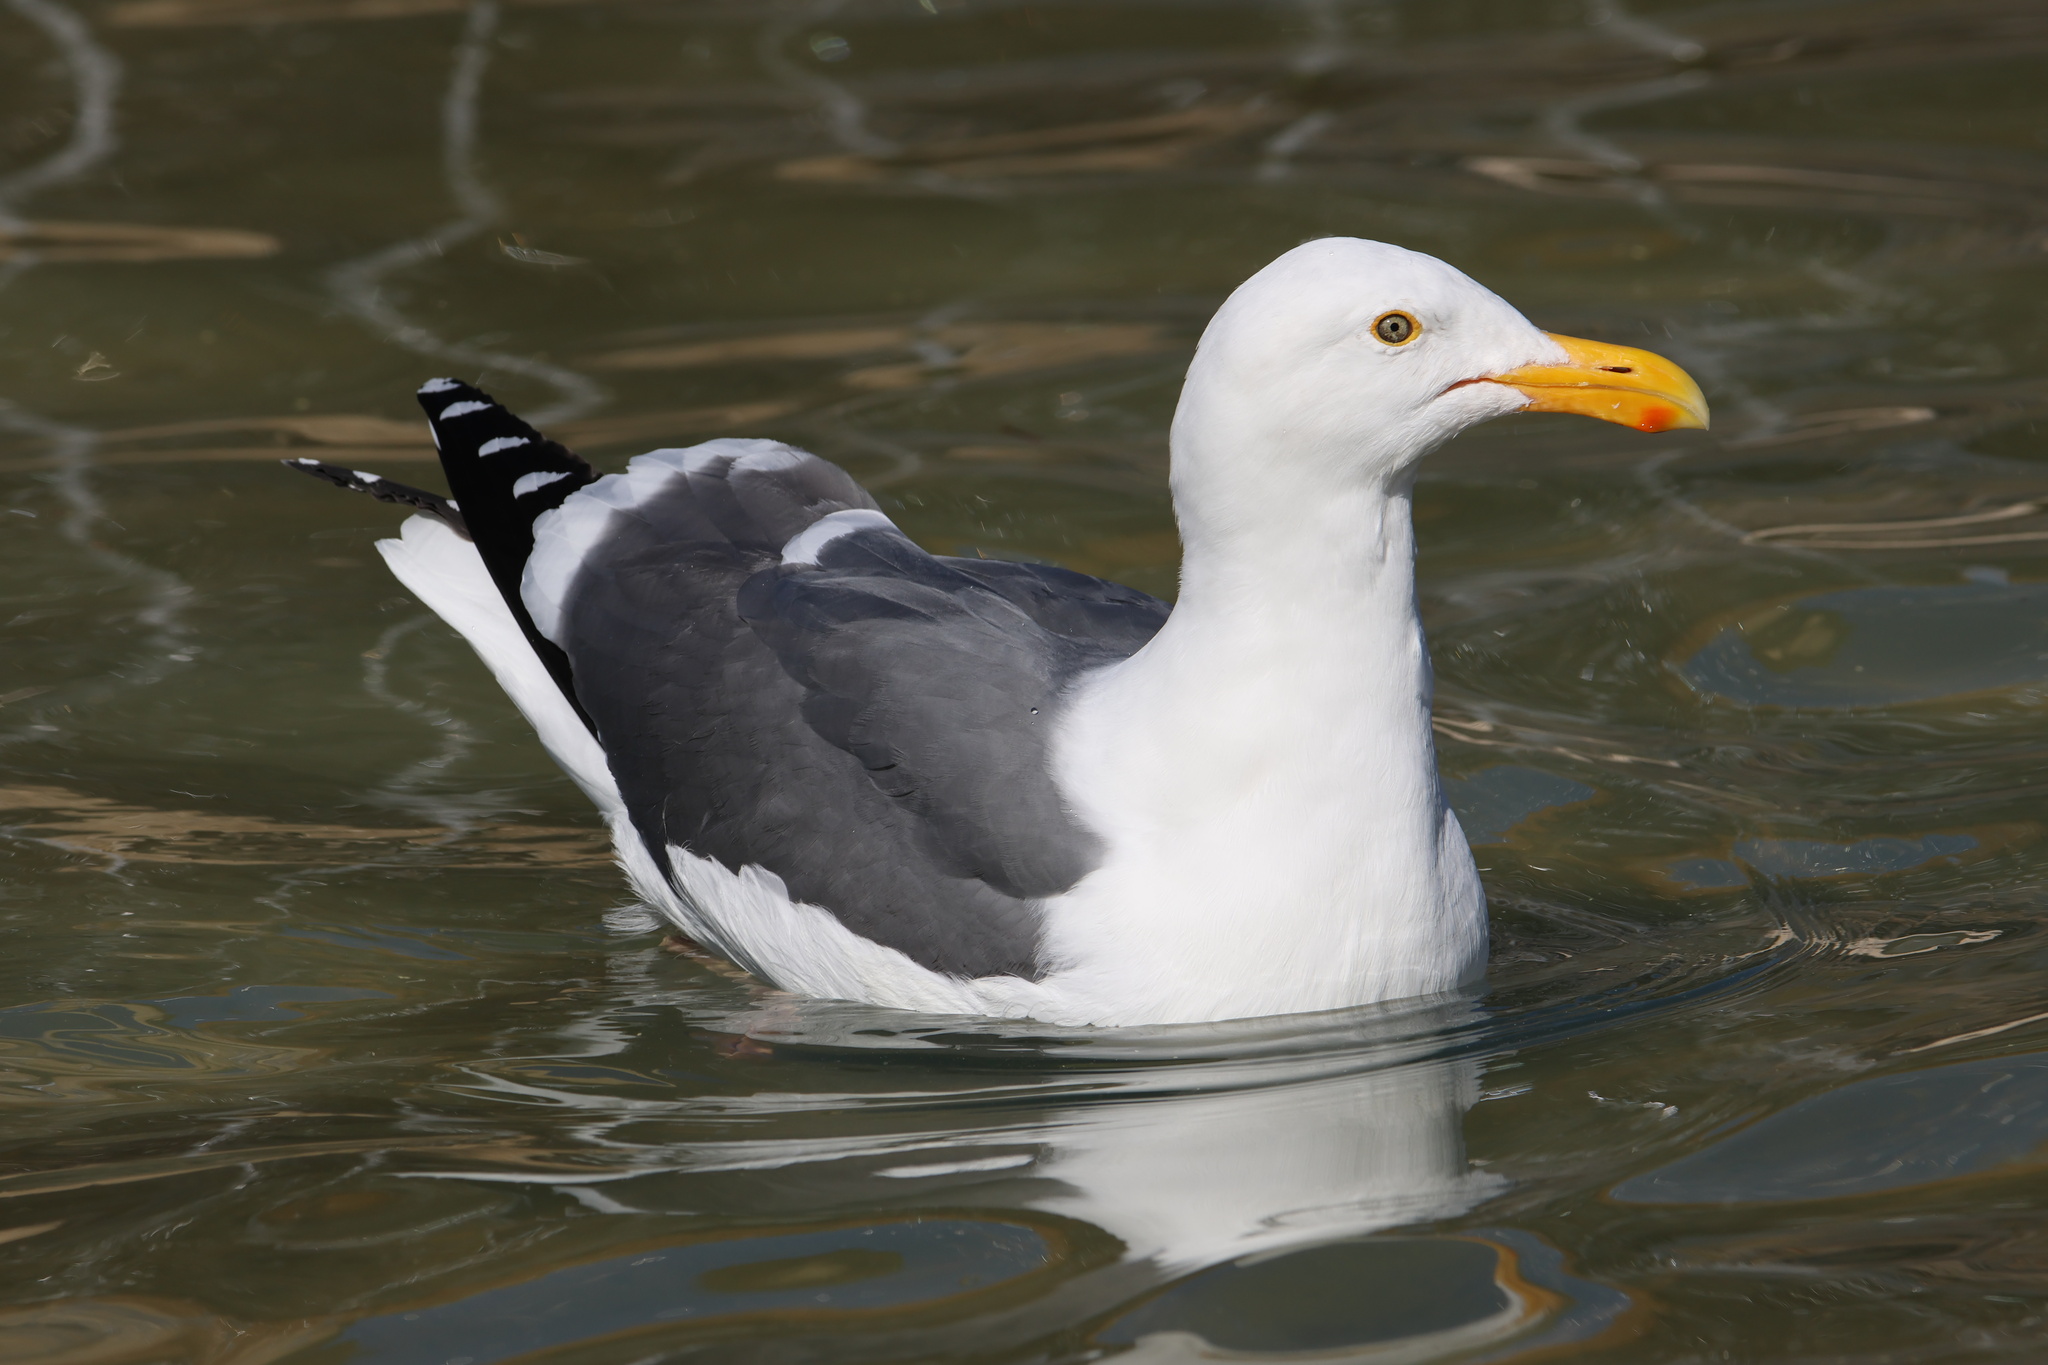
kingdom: Animalia
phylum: Chordata
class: Aves
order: Charadriiformes
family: Laridae
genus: Larus
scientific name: Larus occidentalis
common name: Western gull
